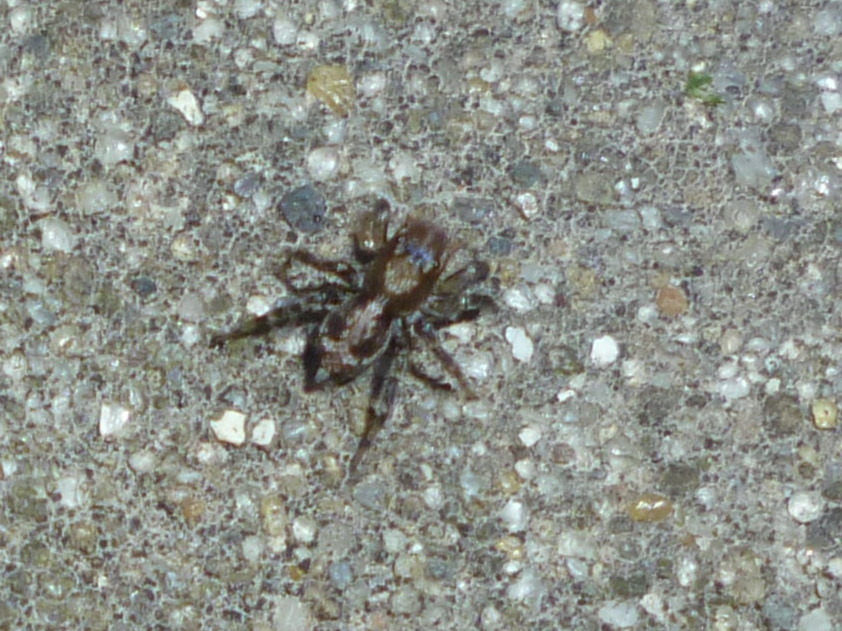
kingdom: Animalia
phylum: Arthropoda
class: Arachnida
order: Araneae
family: Salticidae
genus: Naphrys
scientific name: Naphrys pulex
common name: Flea jumping spider
